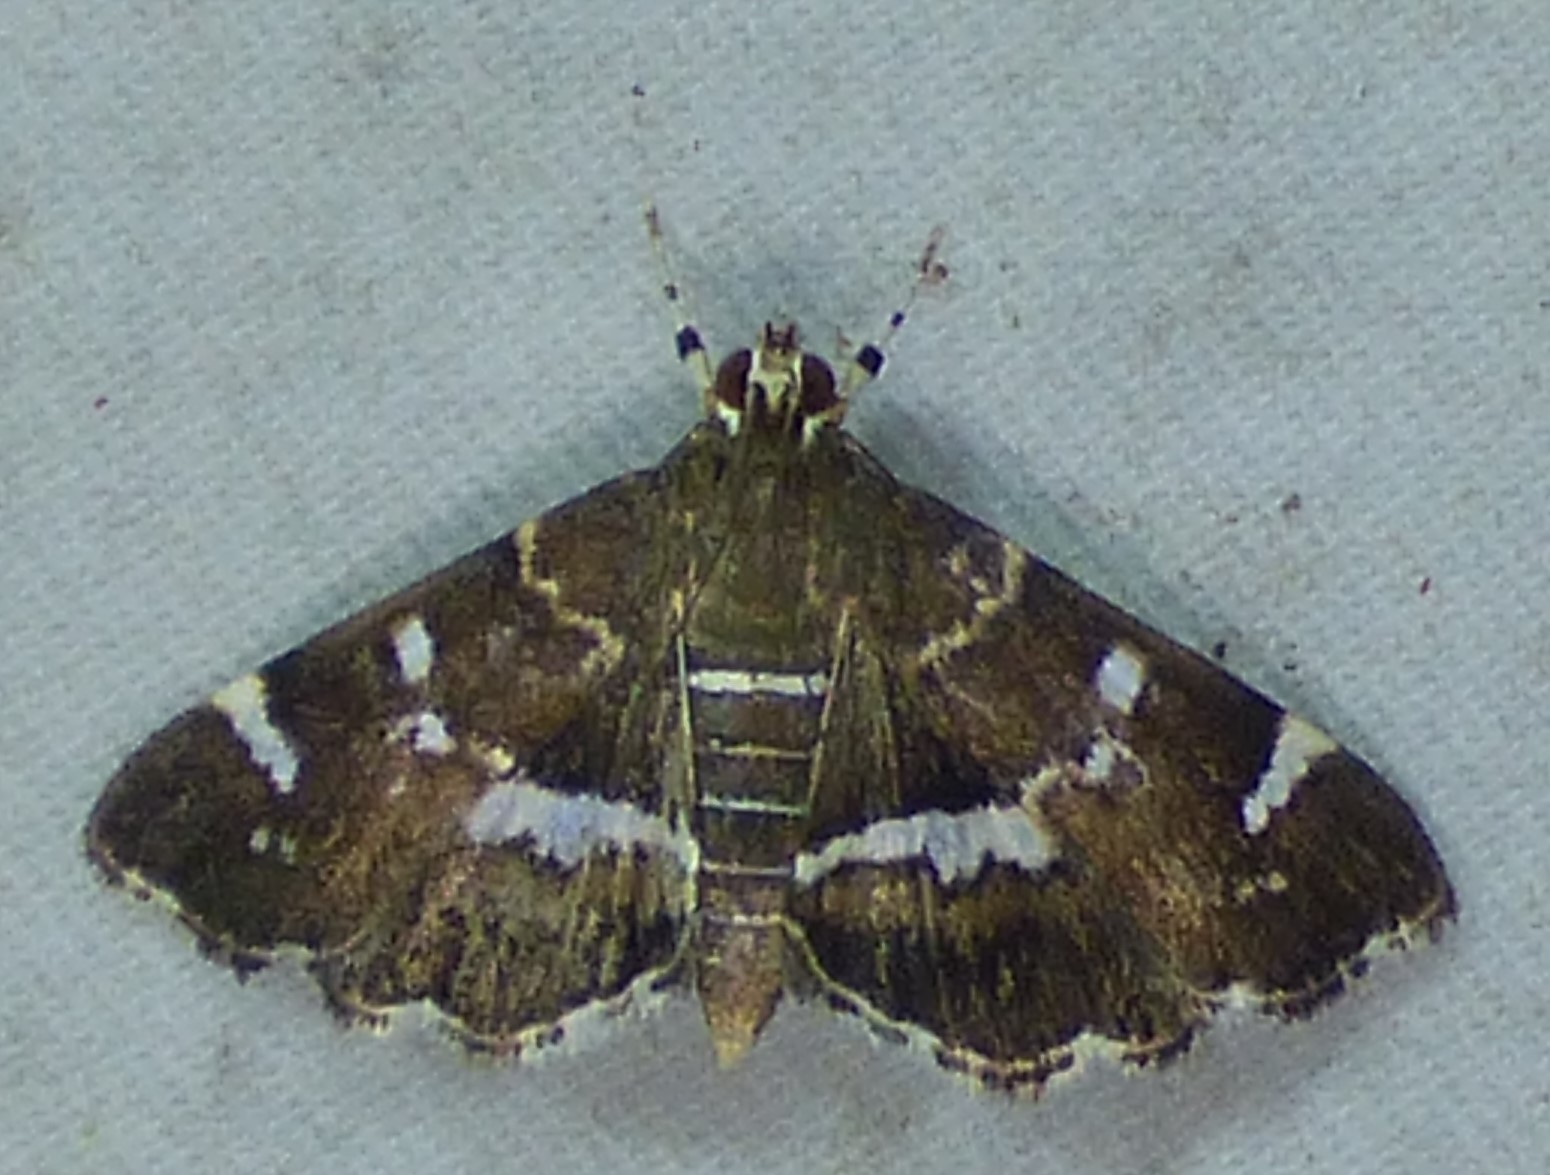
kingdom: Animalia
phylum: Arthropoda
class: Insecta
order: Lepidoptera
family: Crambidae
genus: Hymenia
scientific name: Hymenia perspectalis
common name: Spotted beet webworm
